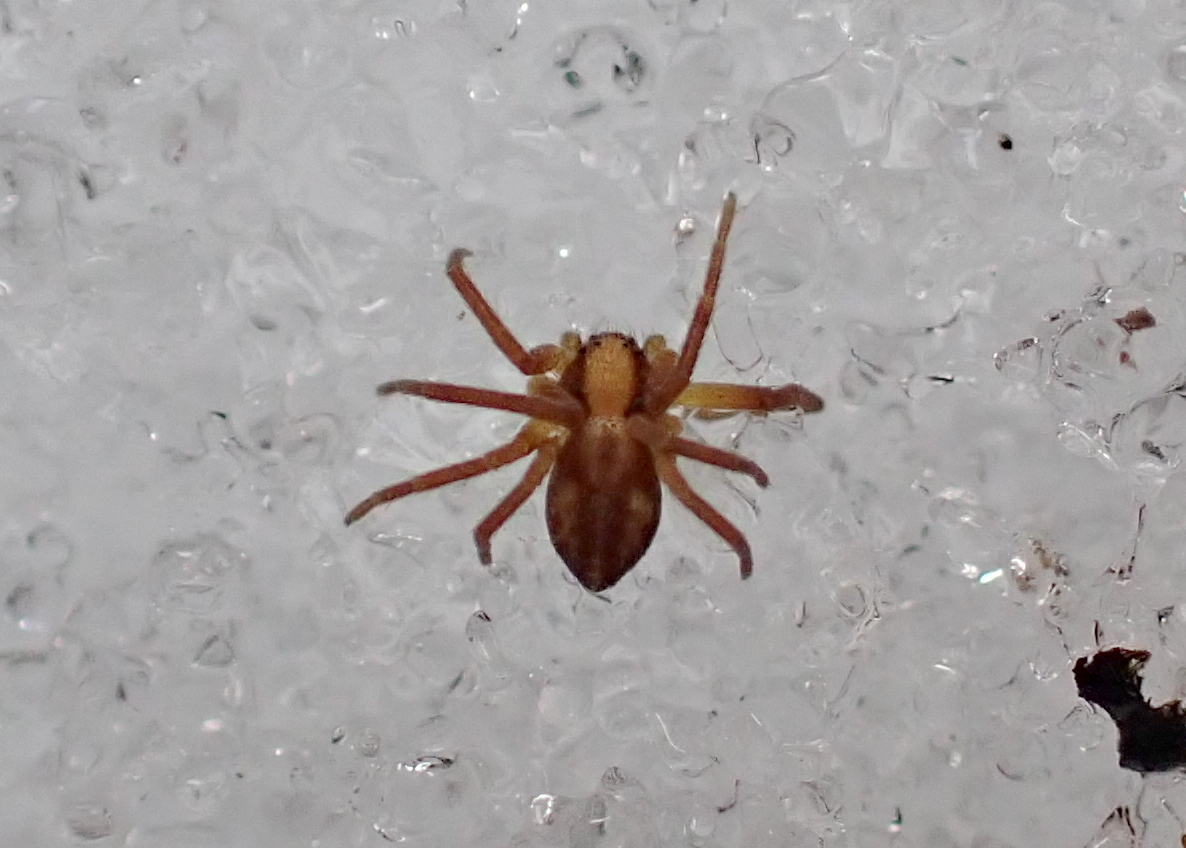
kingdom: Animalia
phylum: Arthropoda
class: Arachnida
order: Araneae
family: Philodromidae
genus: Philodromus
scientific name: Philodromus rufus
